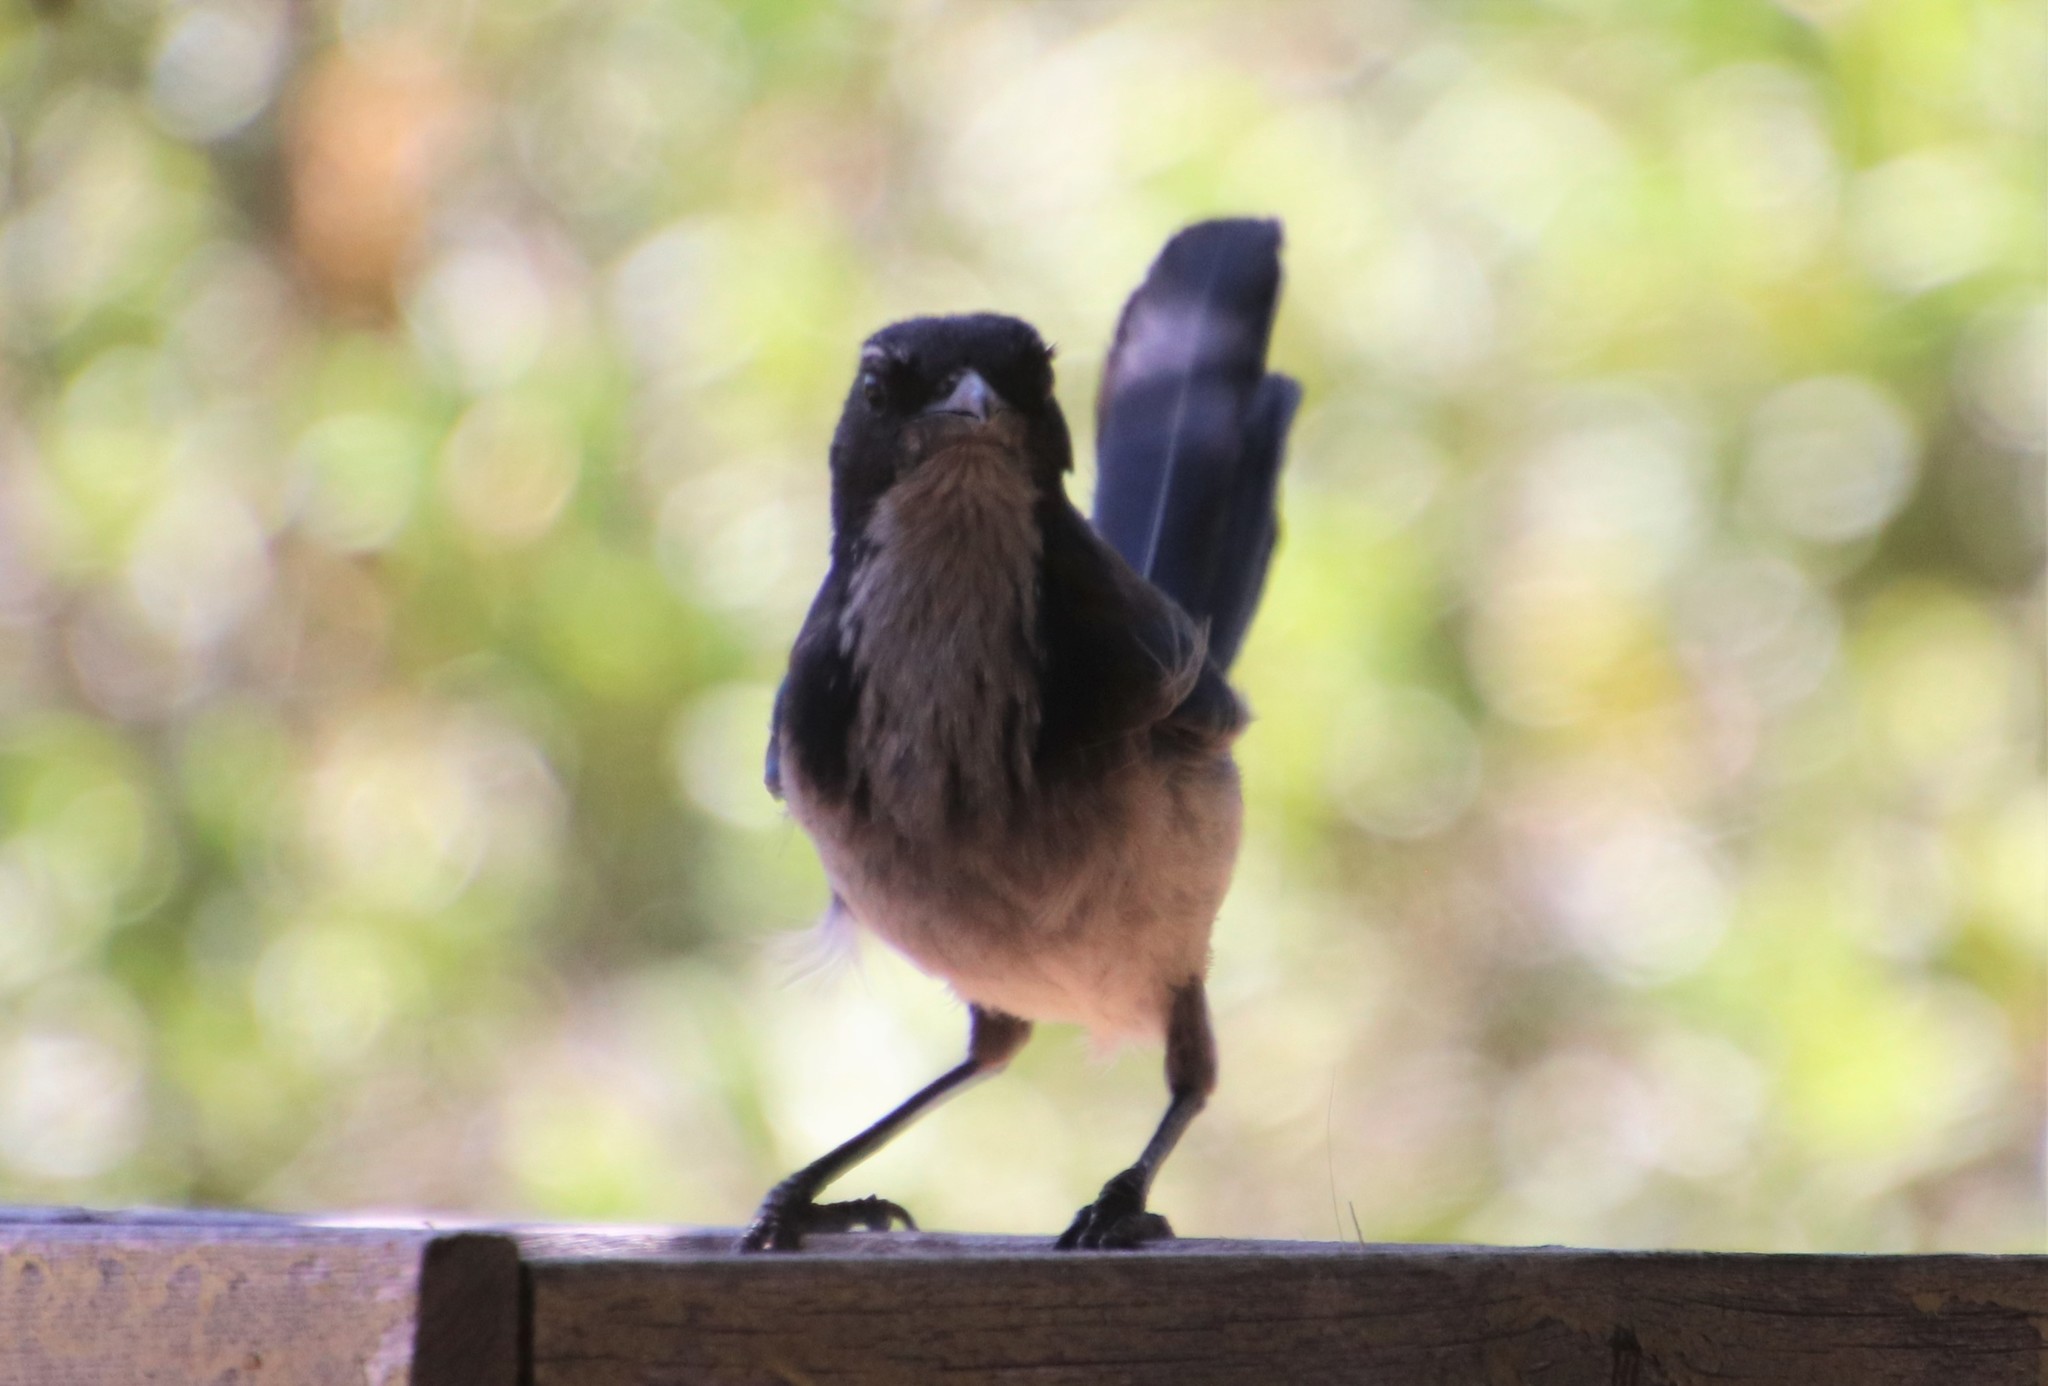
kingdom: Animalia
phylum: Chordata
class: Aves
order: Passeriformes
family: Corvidae
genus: Aphelocoma
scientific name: Aphelocoma californica
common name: California scrub-jay
